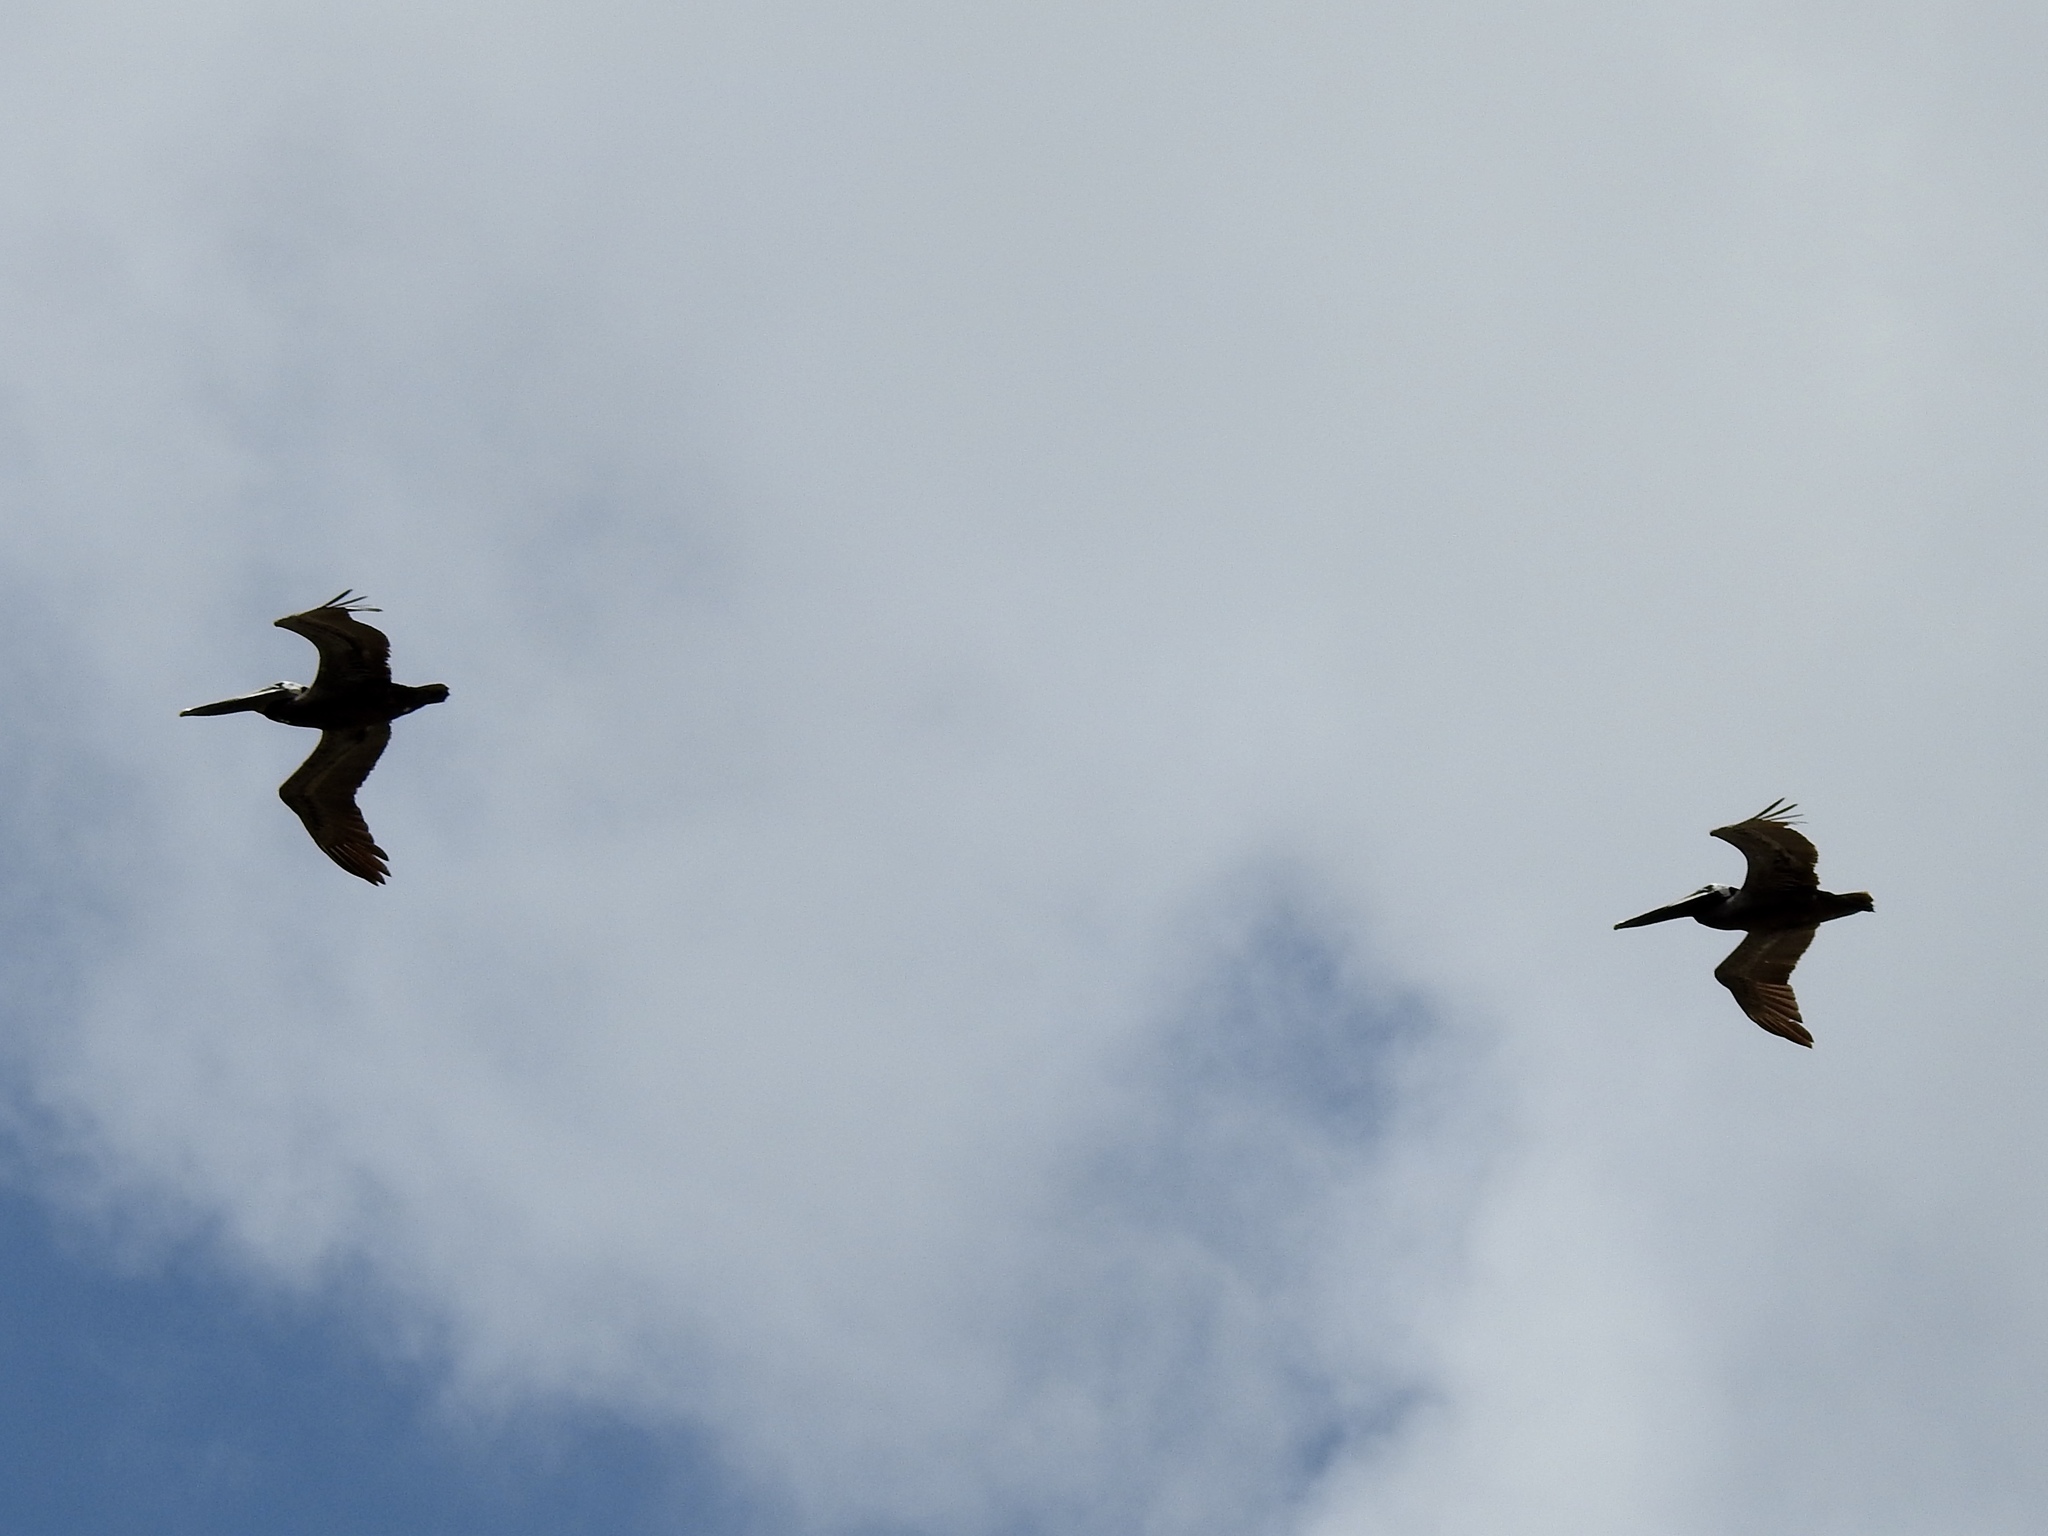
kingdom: Animalia
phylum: Chordata
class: Aves
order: Pelecaniformes
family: Pelecanidae
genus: Pelecanus
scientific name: Pelecanus occidentalis
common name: Brown pelican
